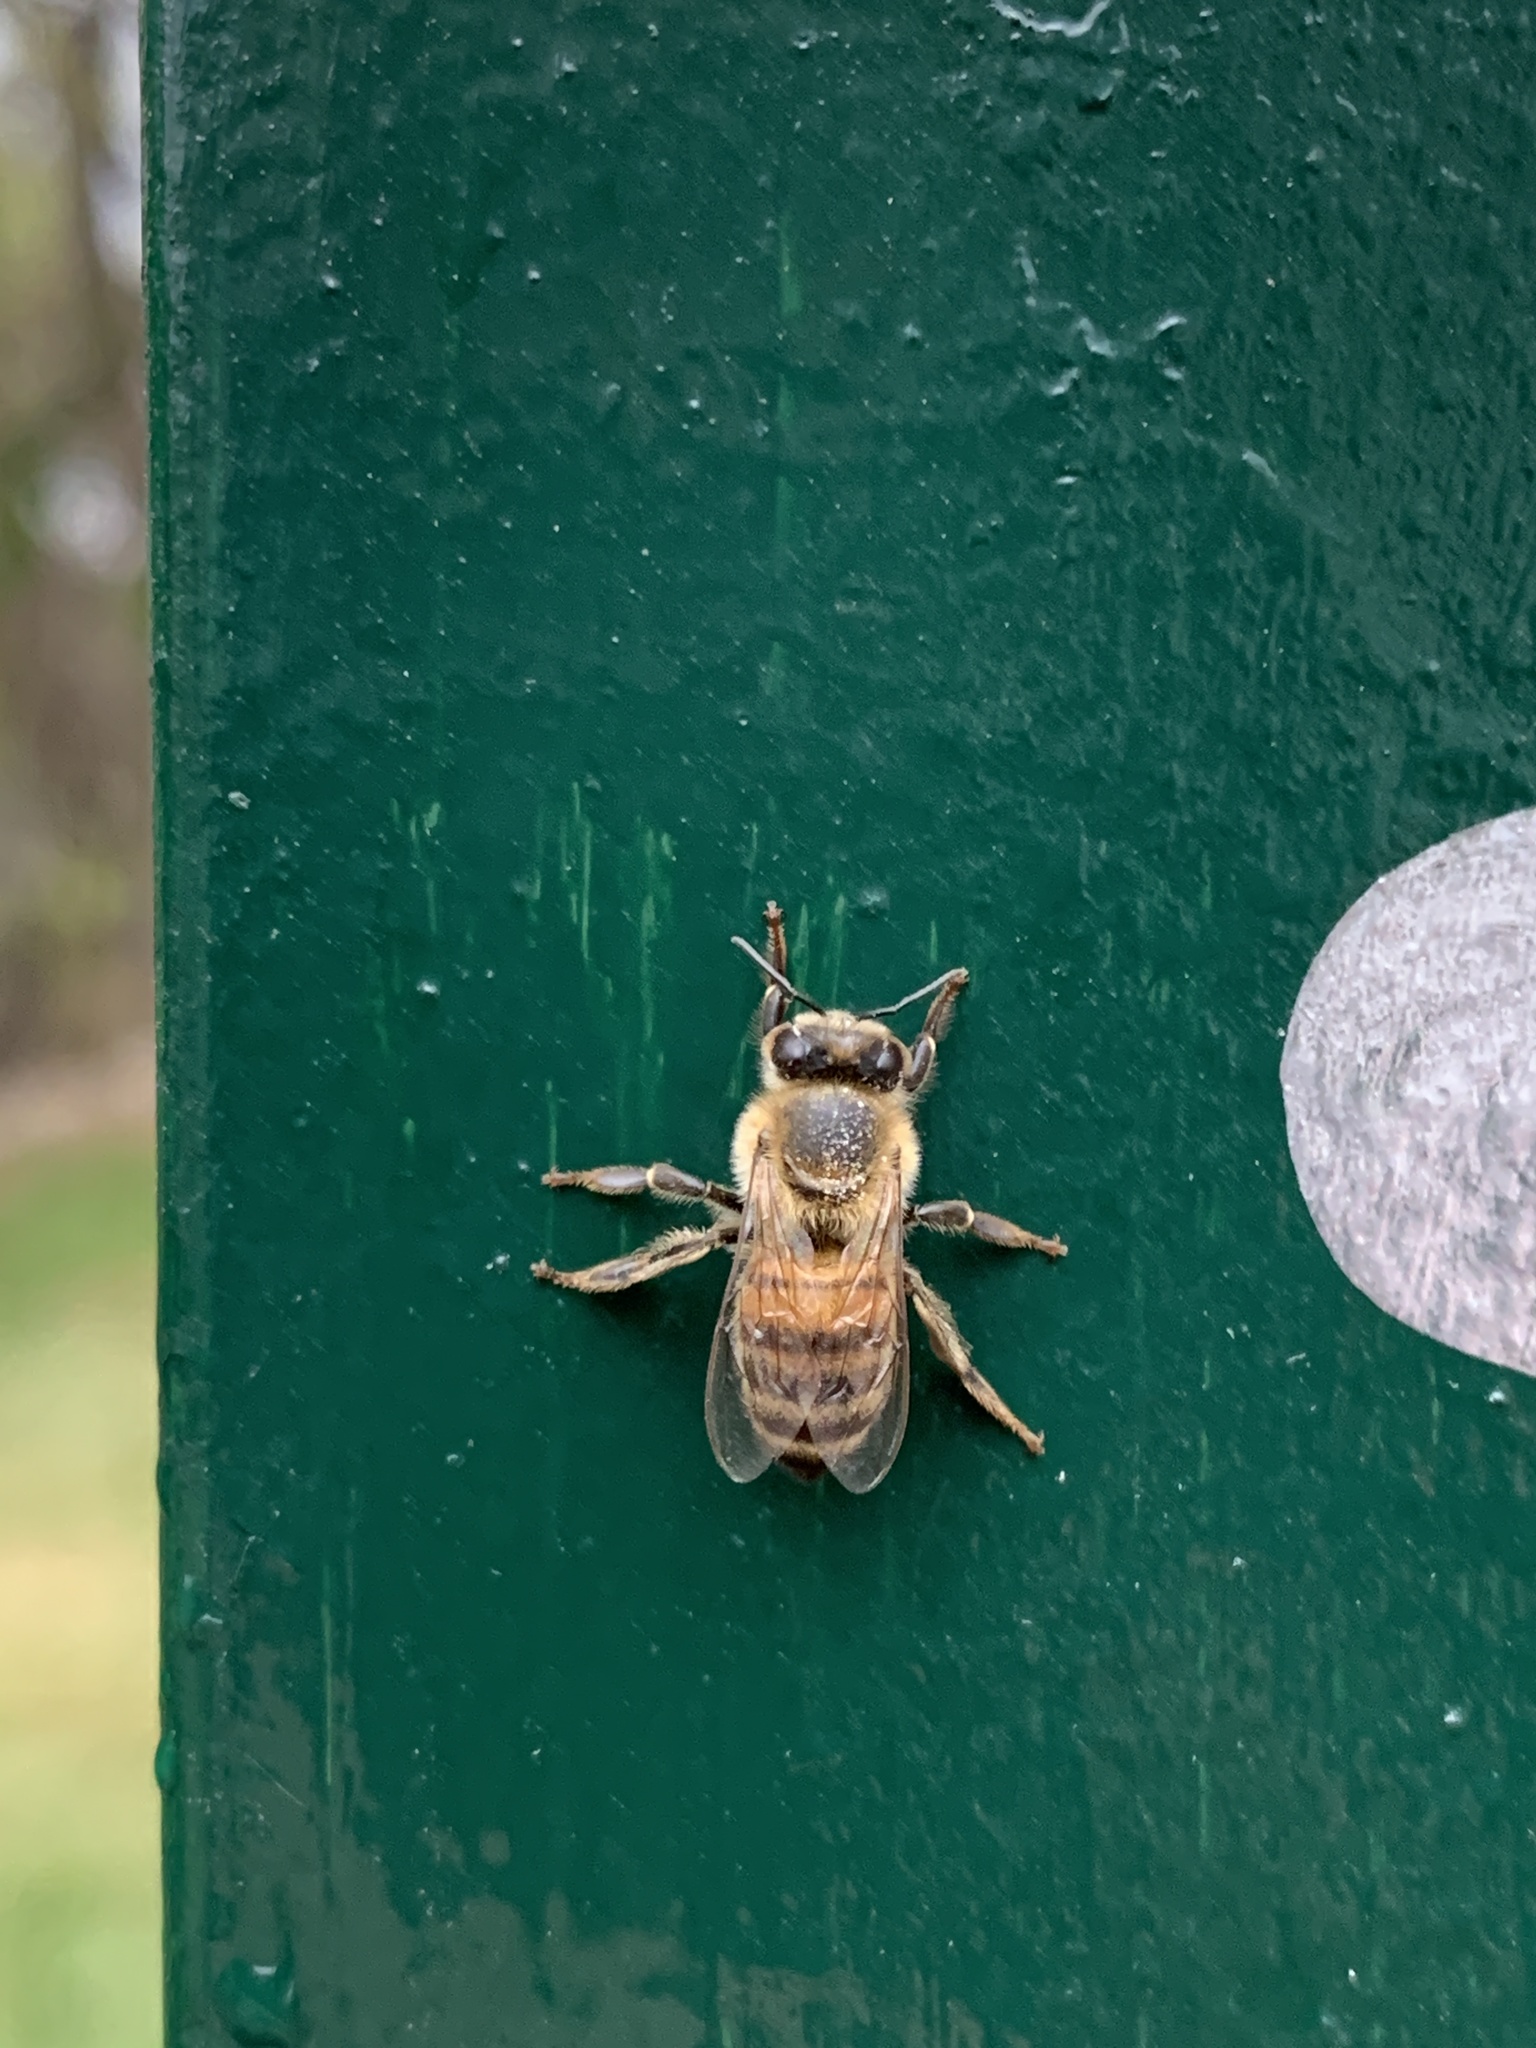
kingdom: Animalia
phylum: Arthropoda
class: Insecta
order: Hymenoptera
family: Apidae
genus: Apis
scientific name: Apis mellifera
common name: Honey bee
